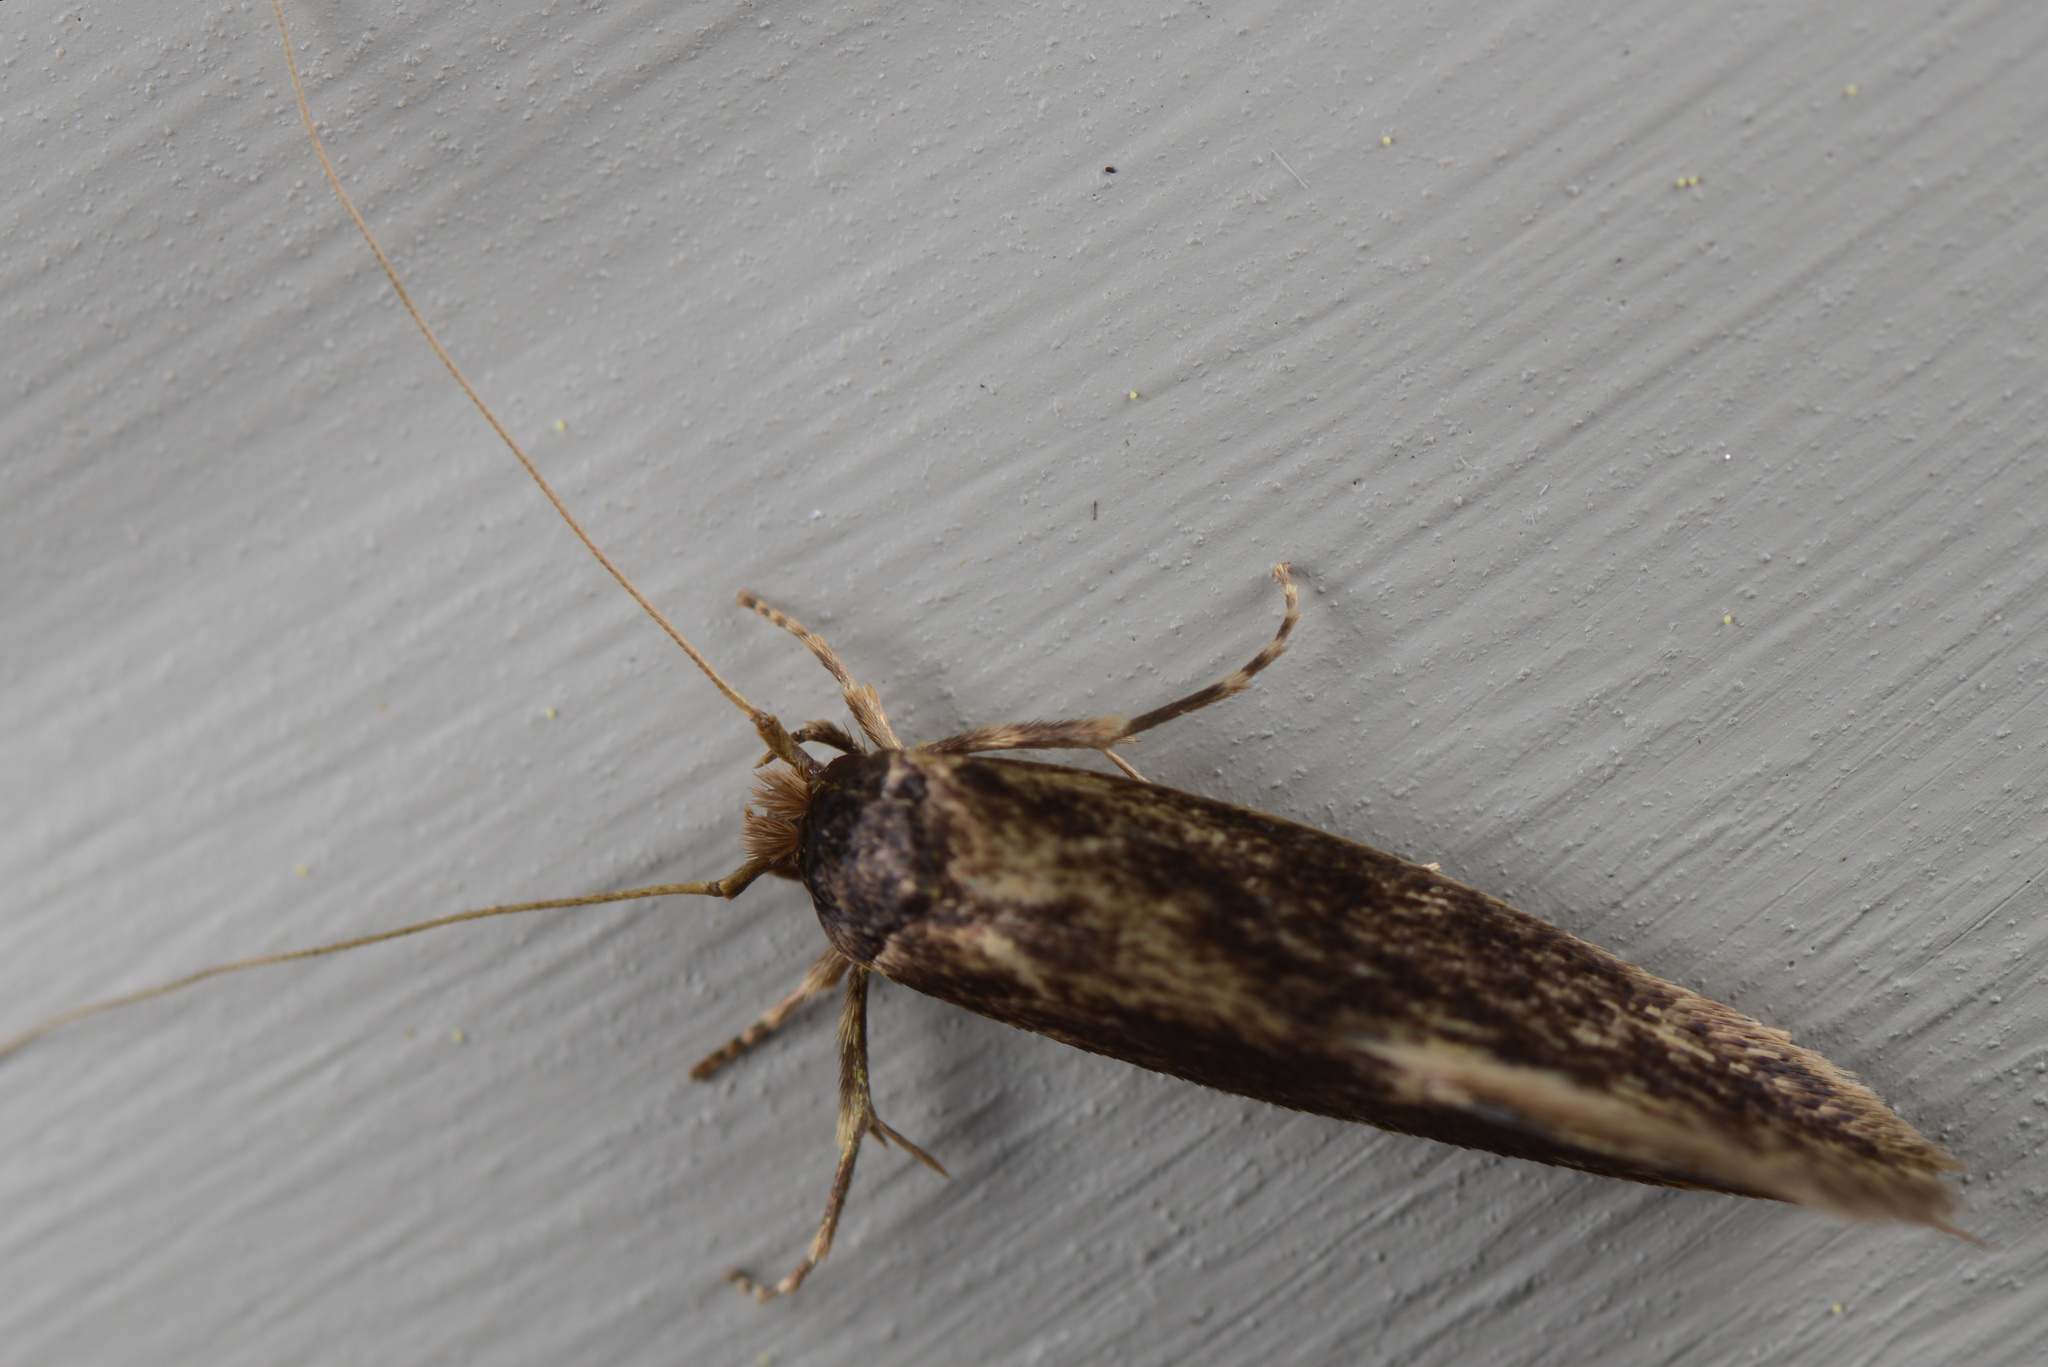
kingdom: Animalia
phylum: Arthropoda
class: Insecta
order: Lepidoptera
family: Tineidae
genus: Opogona
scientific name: Opogona omoscopa
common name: Moth
